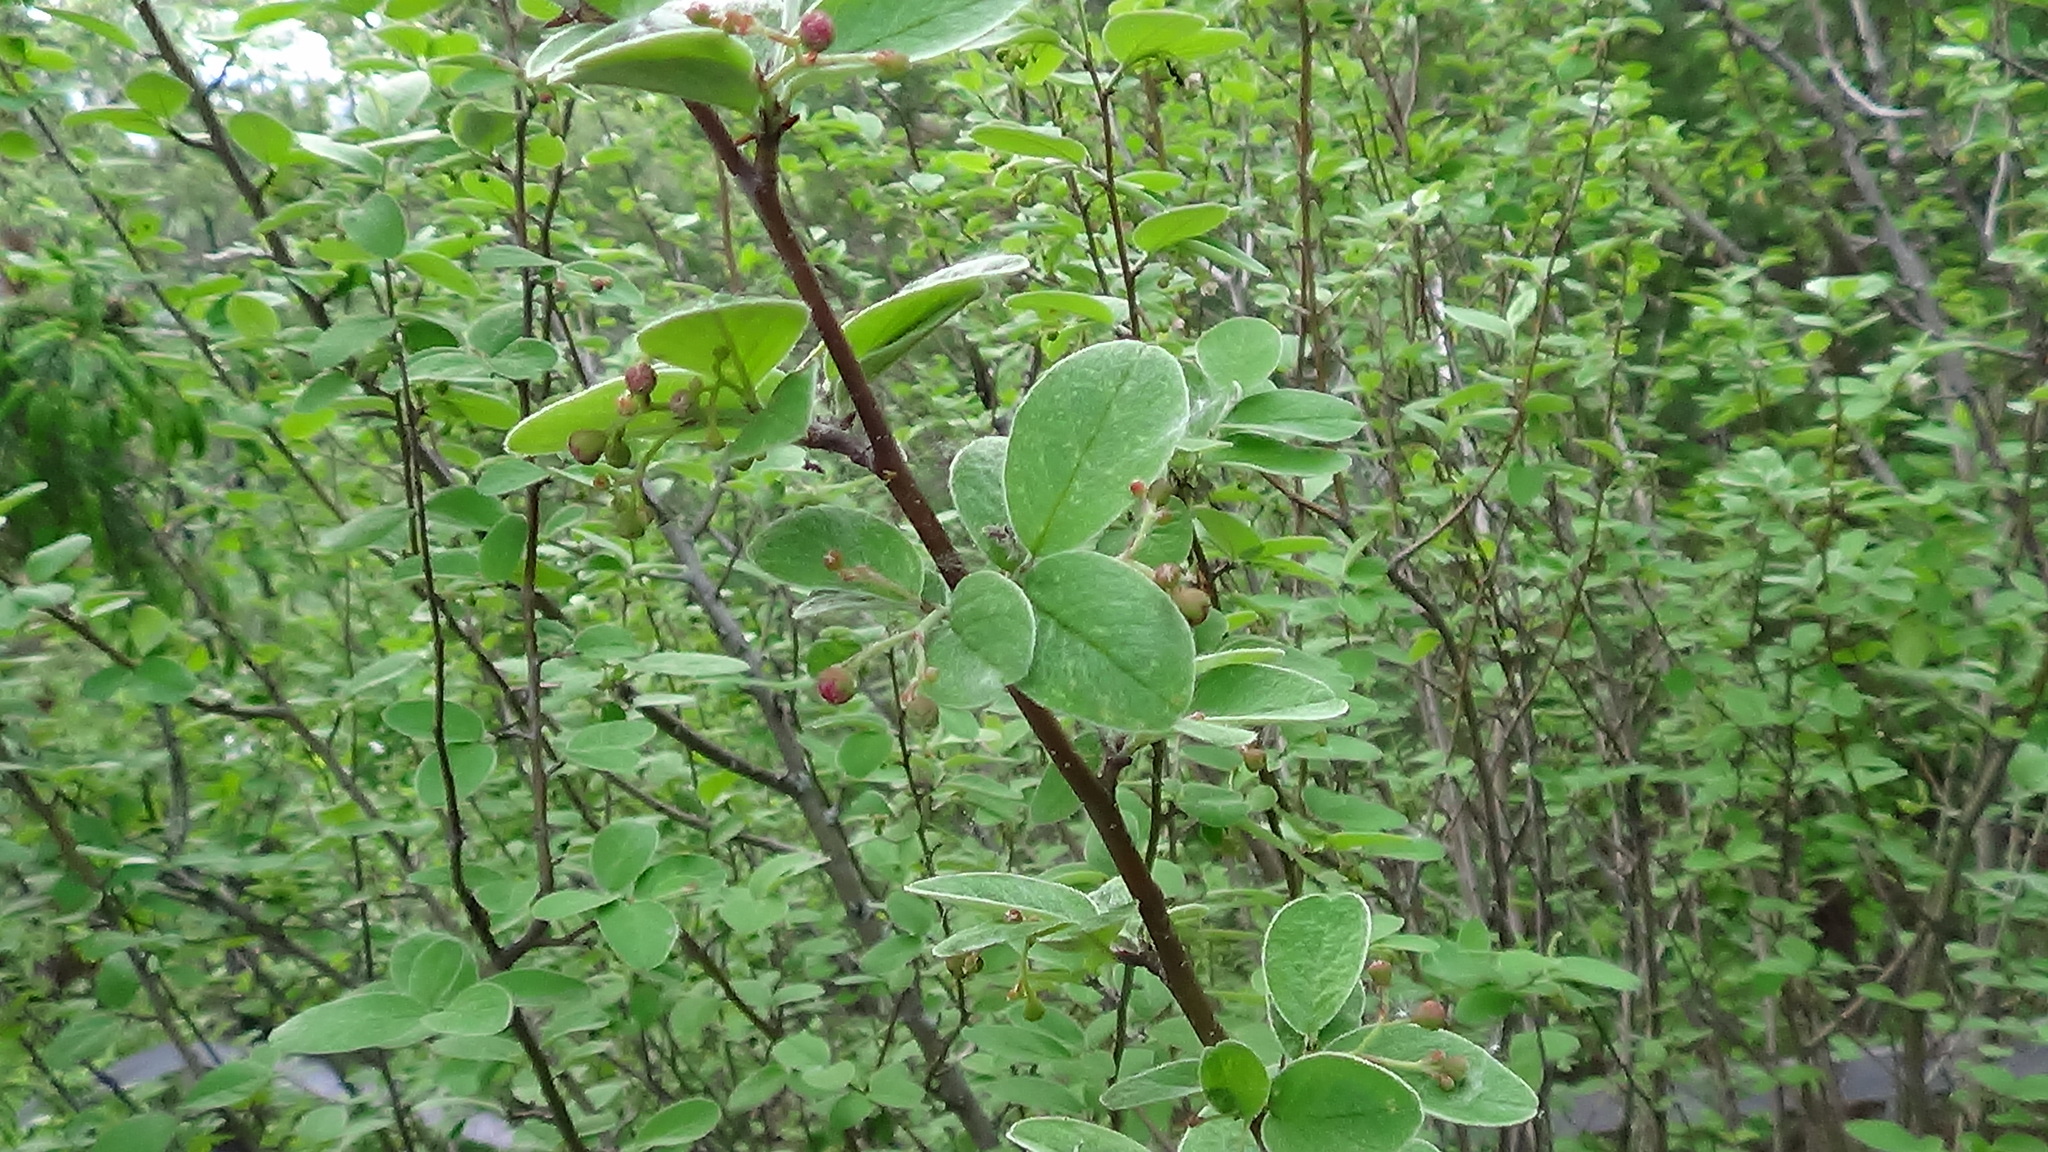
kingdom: Plantae
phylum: Tracheophyta
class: Magnoliopsida
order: Rosales
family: Rosaceae
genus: Cotoneaster
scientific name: Cotoneaster melanocarpus
